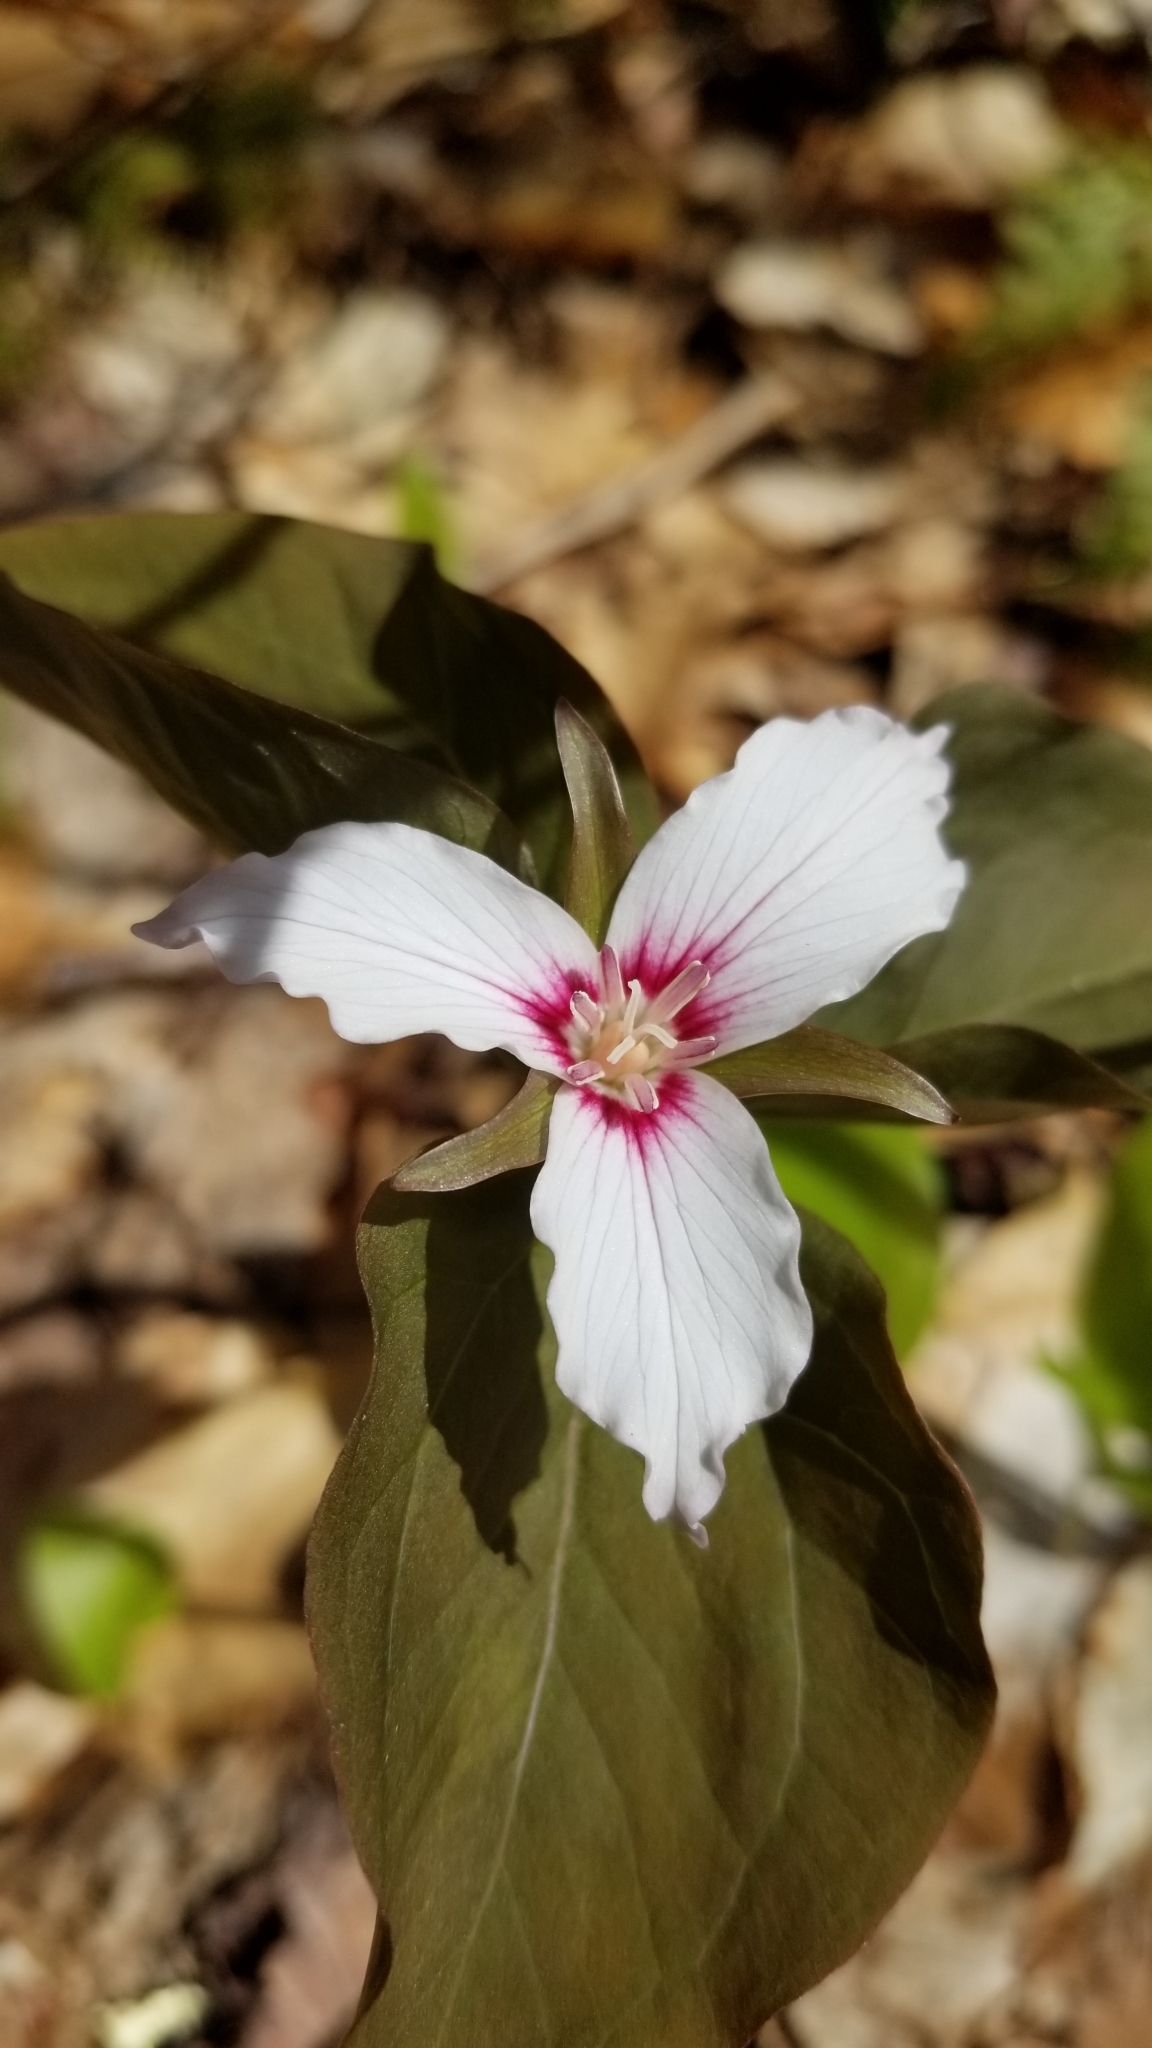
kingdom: Plantae
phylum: Tracheophyta
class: Liliopsida
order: Liliales
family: Melanthiaceae
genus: Trillium
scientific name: Trillium undulatum
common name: Paint trillium
